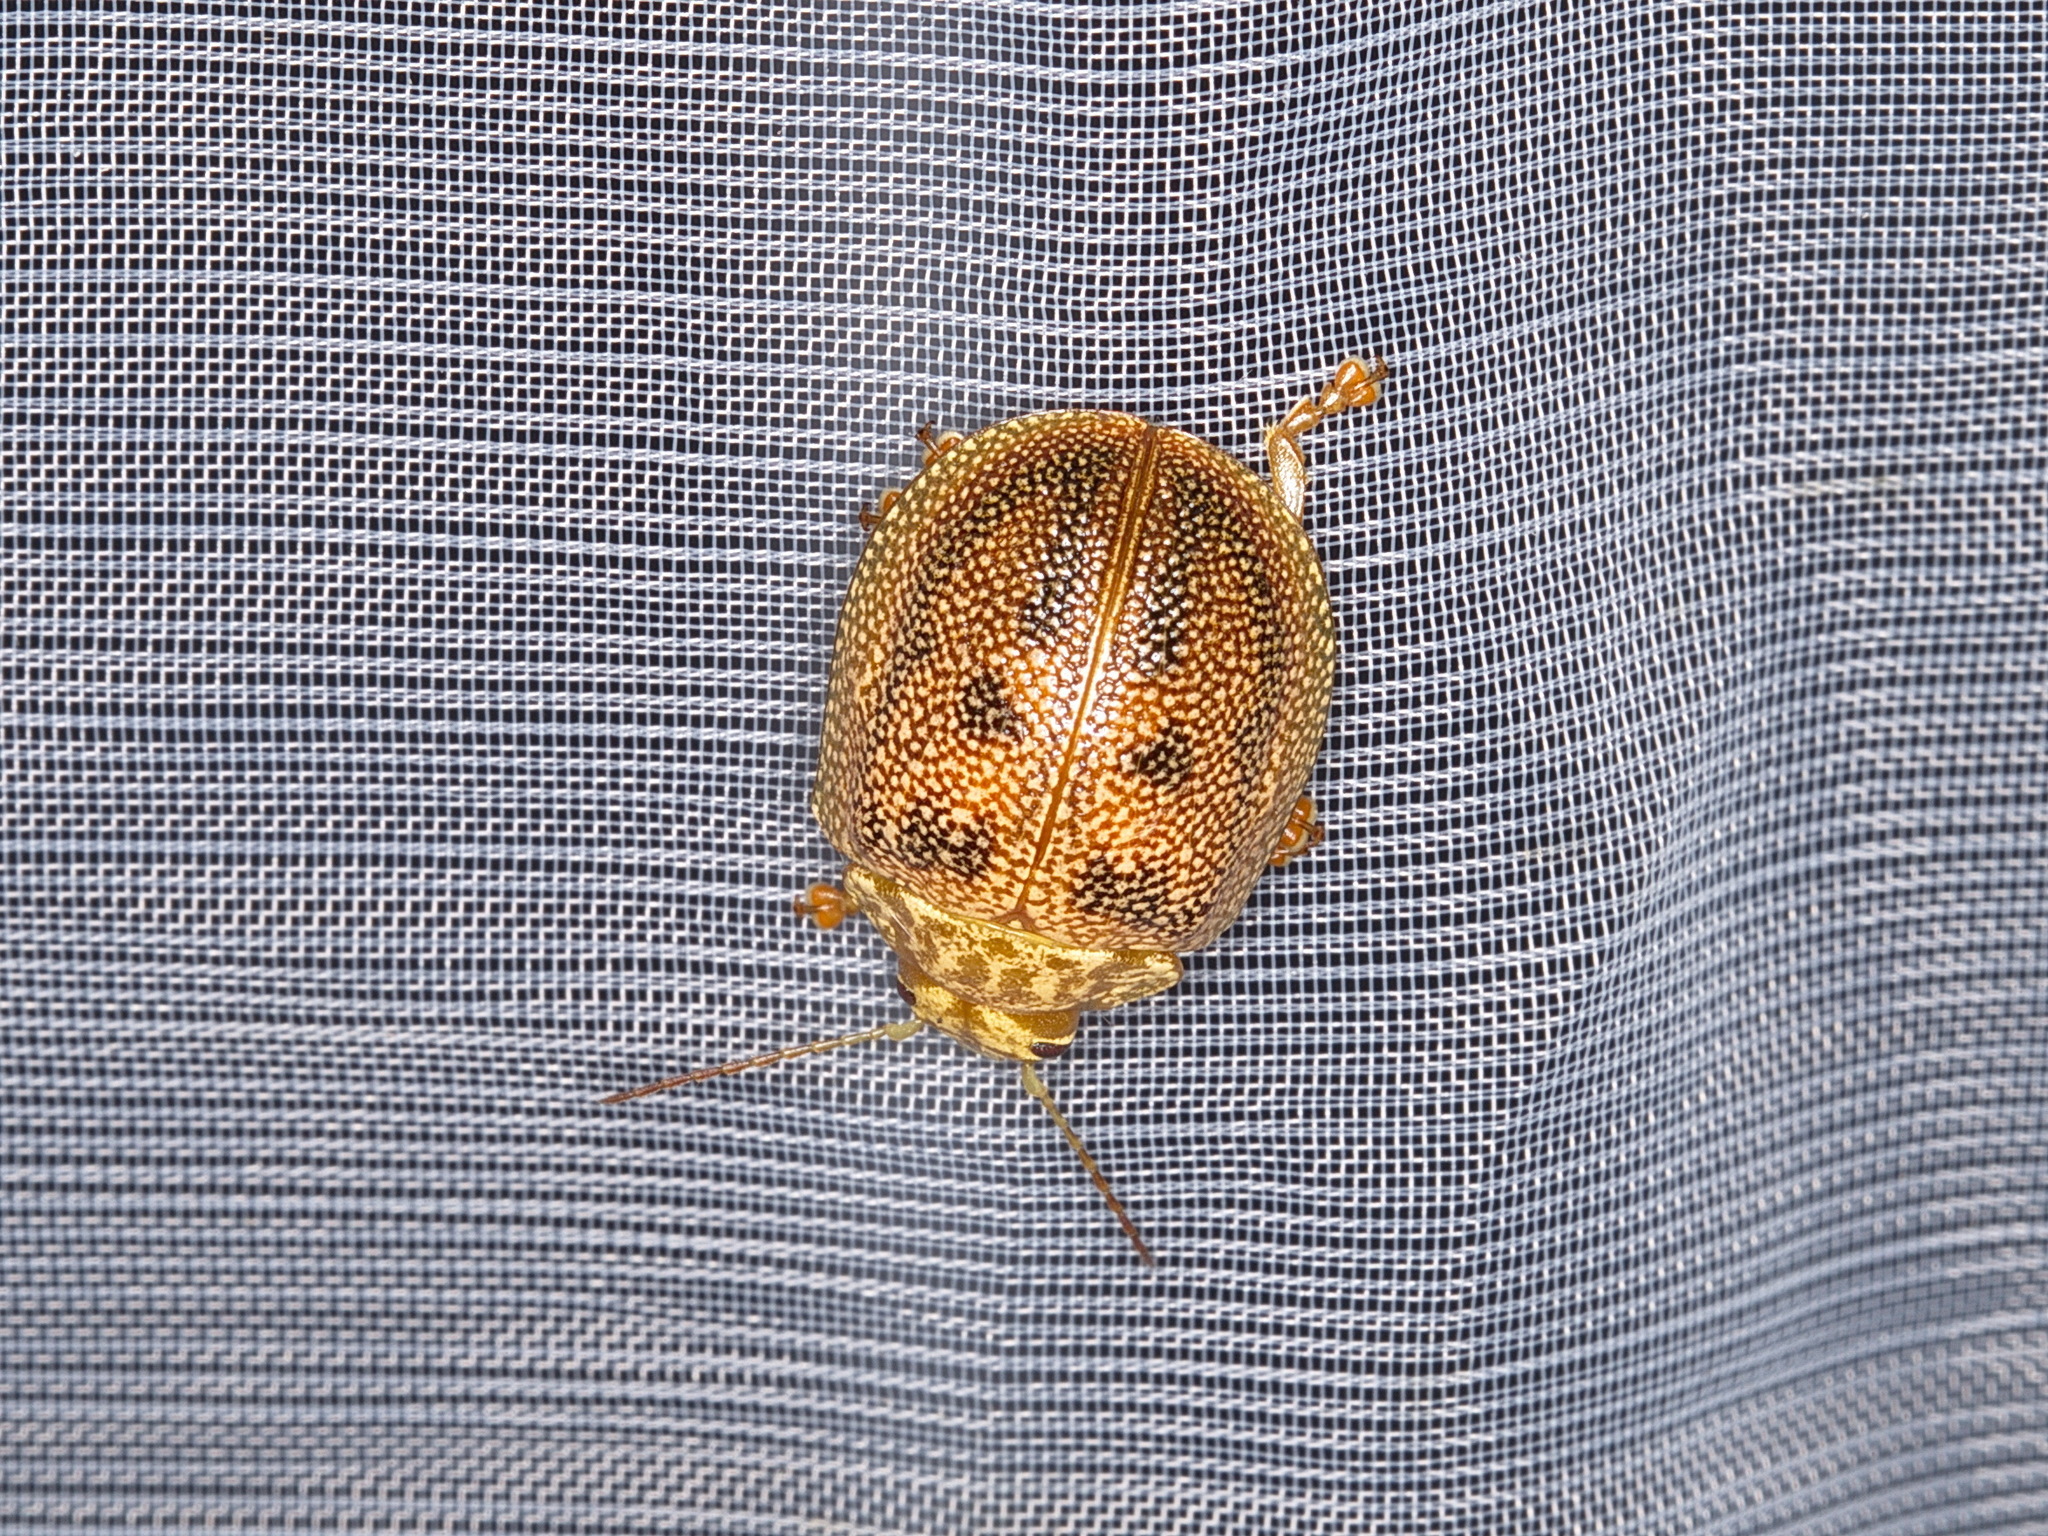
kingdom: Animalia
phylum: Arthropoda
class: Insecta
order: Coleoptera
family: Chrysomelidae
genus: Paropsis
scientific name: Paropsis
